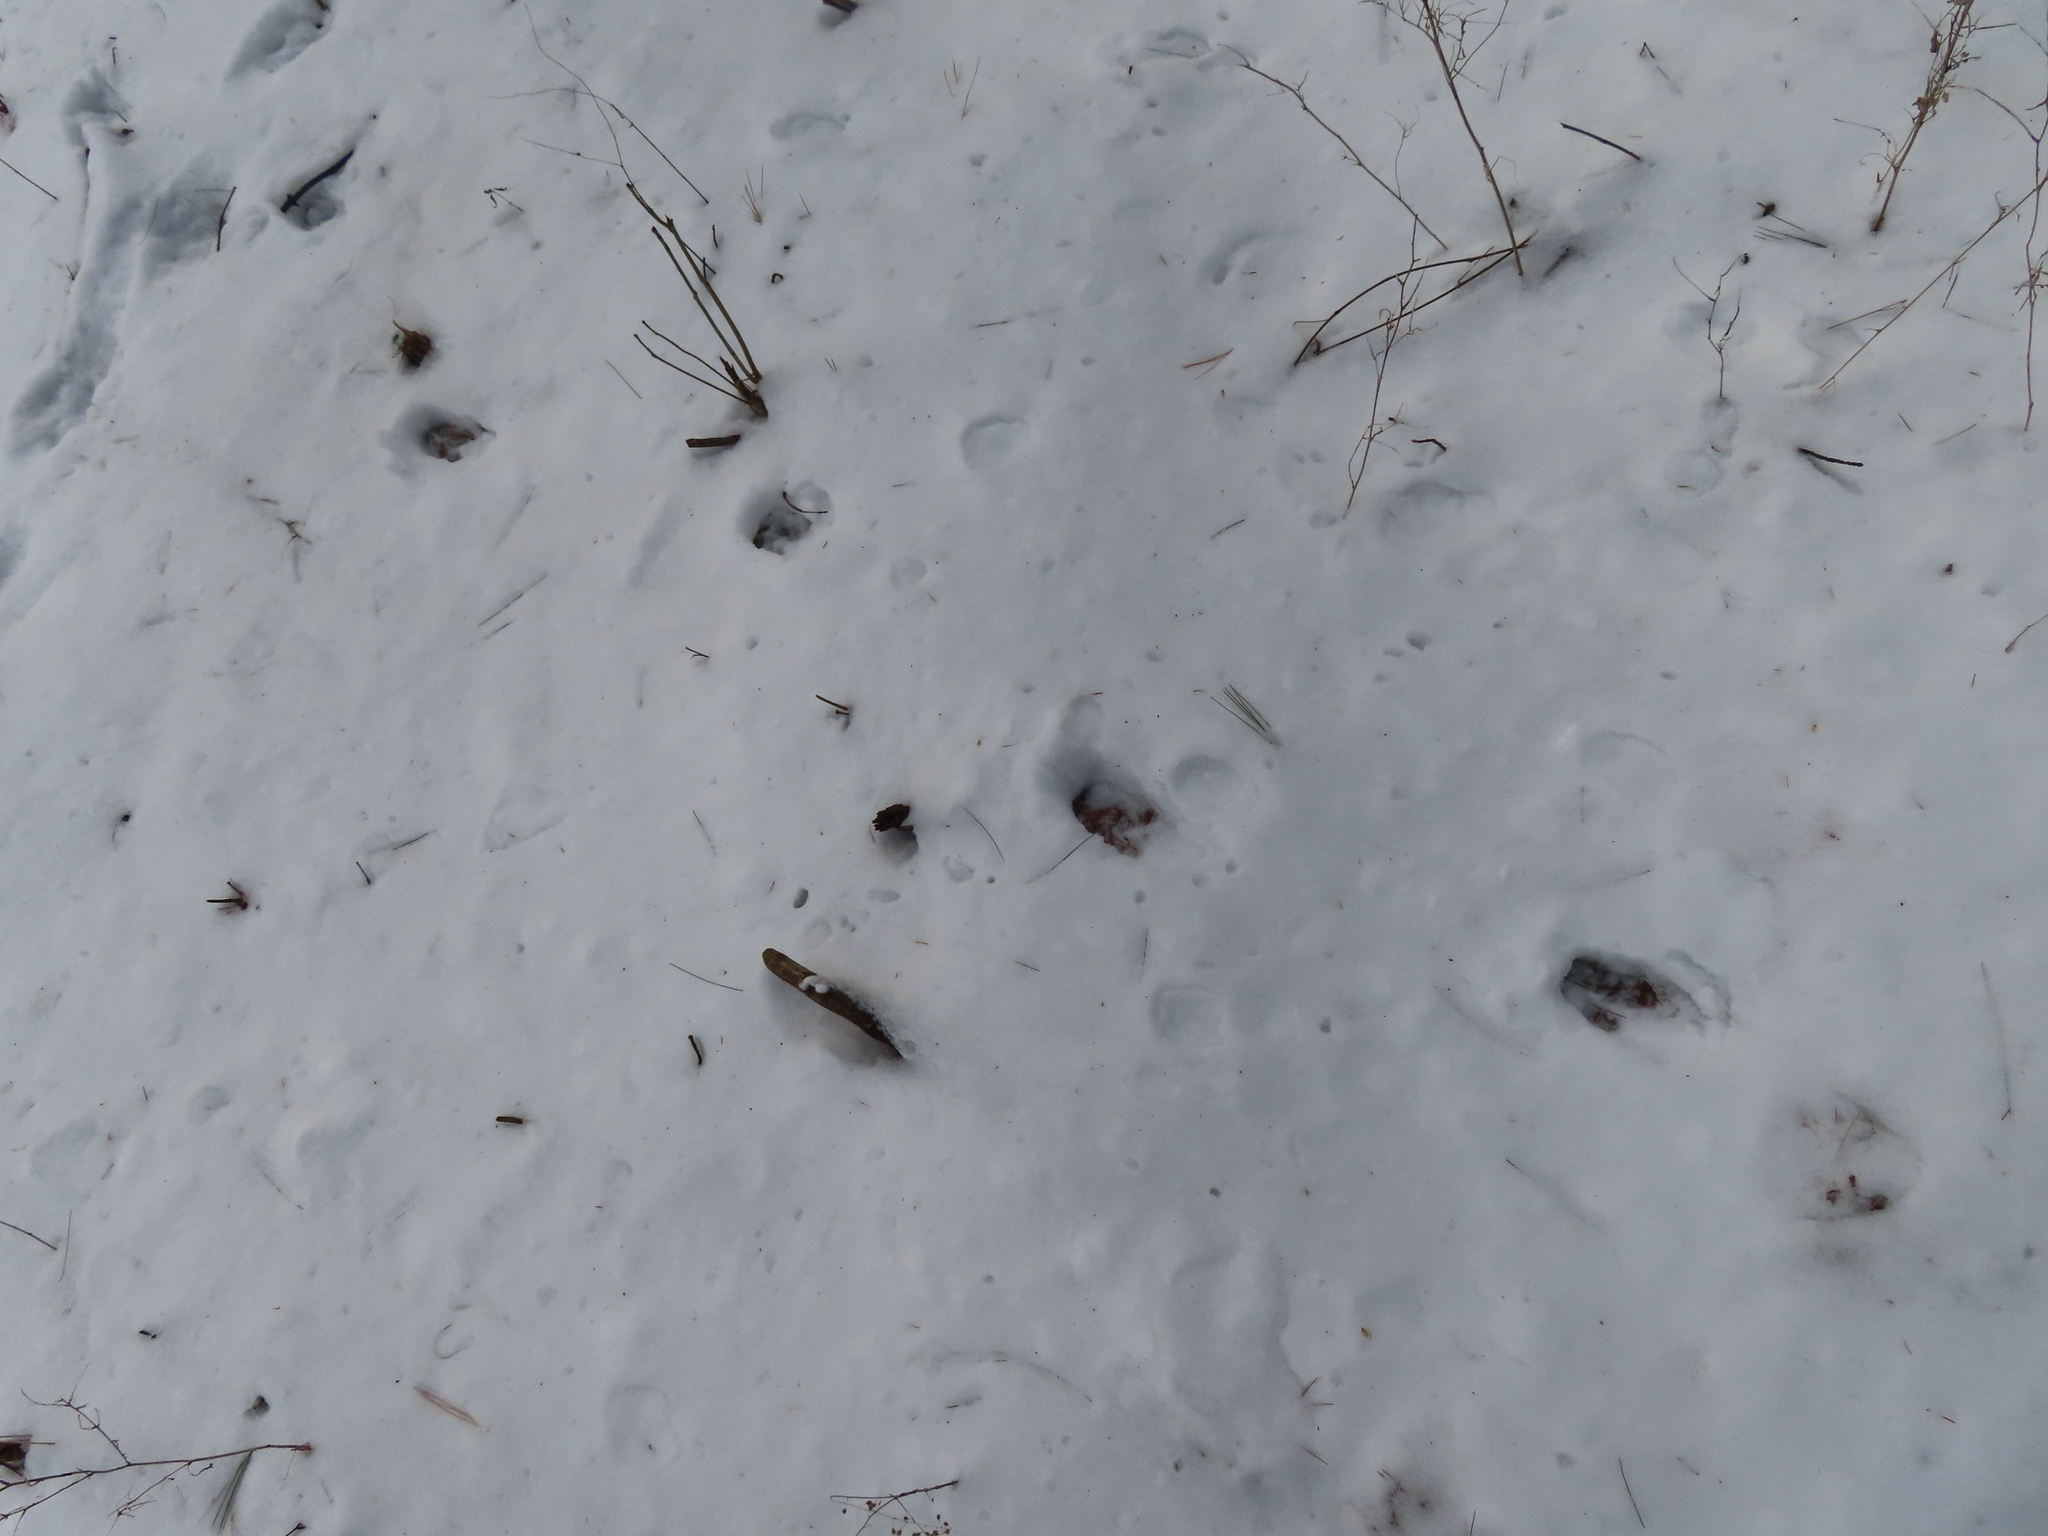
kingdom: Animalia
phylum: Chordata
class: Mammalia
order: Artiodactyla
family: Cervidae
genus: Odocoileus
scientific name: Odocoileus virginianus
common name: White-tailed deer
